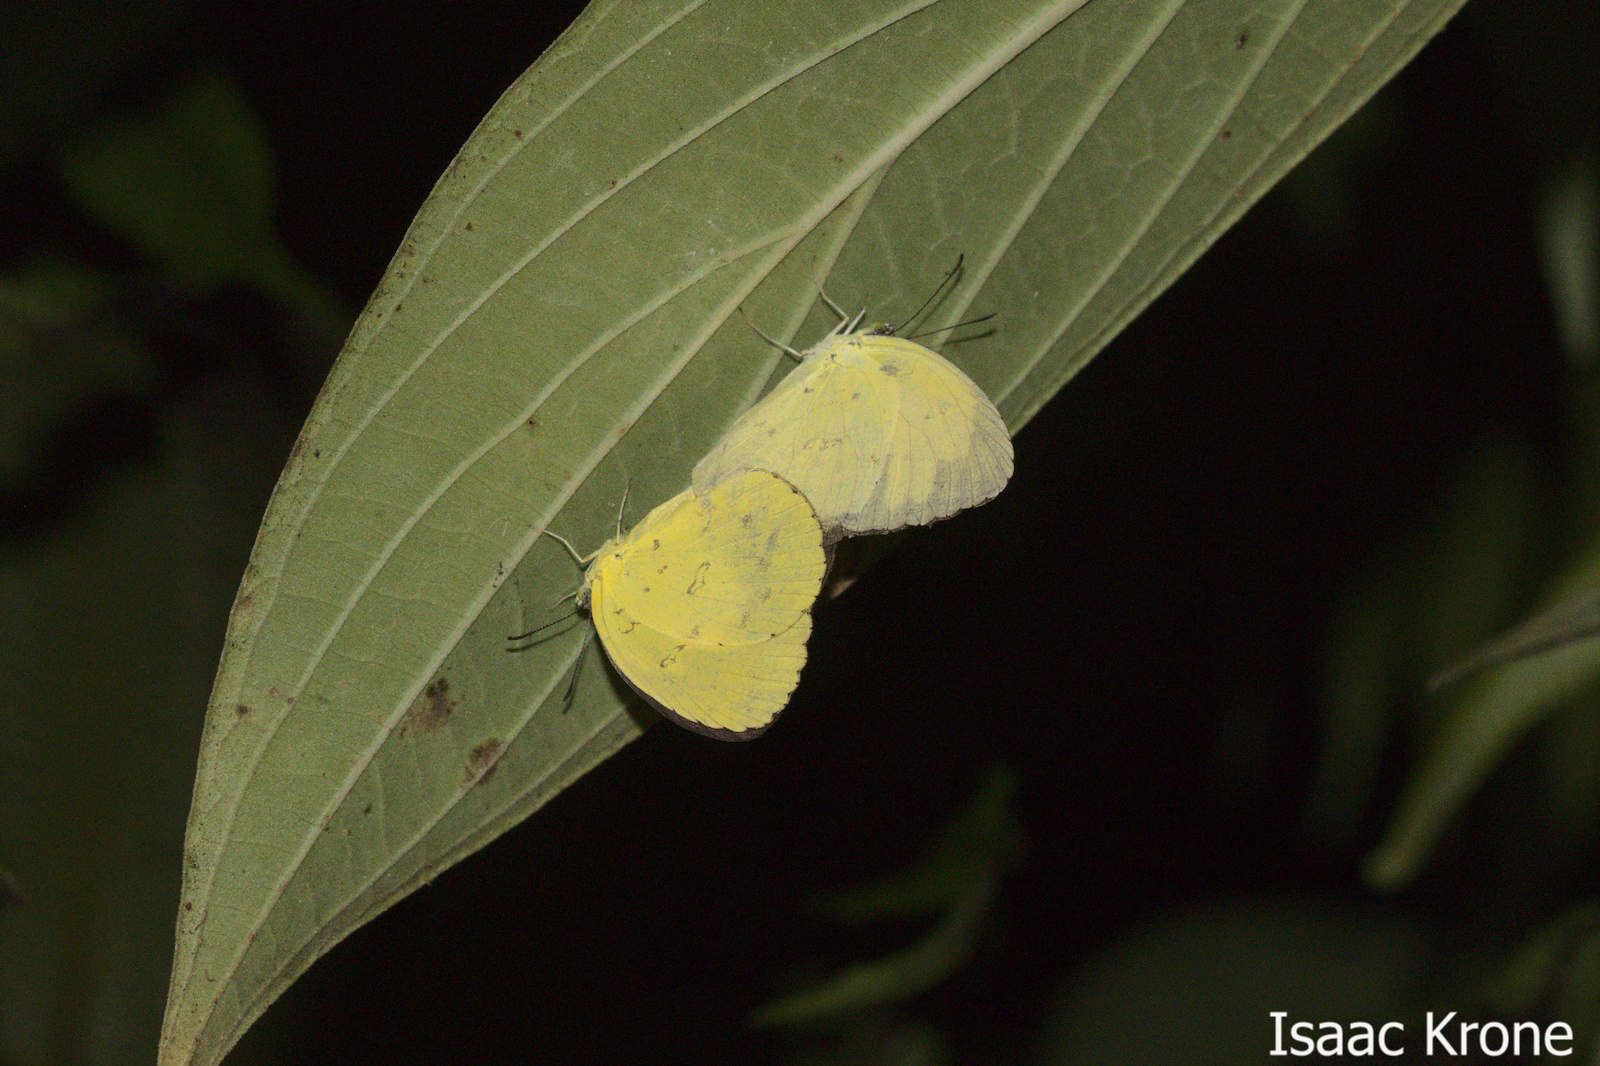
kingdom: Animalia
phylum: Arthropoda
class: Insecta
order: Lepidoptera
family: Pieridae
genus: Eurema
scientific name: Eurema hecabe
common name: Pale grass yellow
